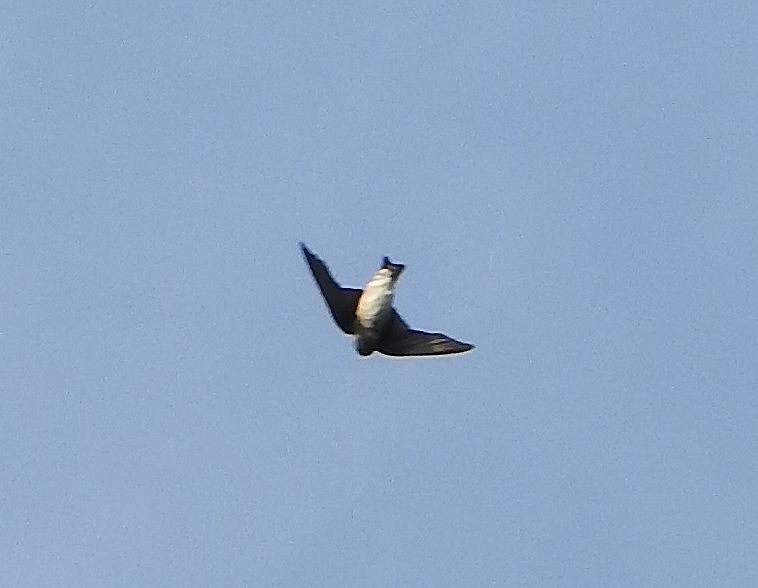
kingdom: Animalia
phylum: Chordata
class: Aves
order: Passeriformes
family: Hirundinidae
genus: Delichon
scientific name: Delichon dasypus
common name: Asian house martin
